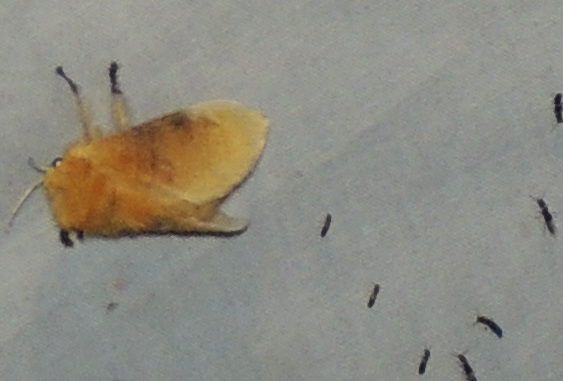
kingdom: Animalia
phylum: Arthropoda
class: Insecta
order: Lepidoptera
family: Megalopygidae
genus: Megalopyge
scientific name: Megalopyge opercularis
